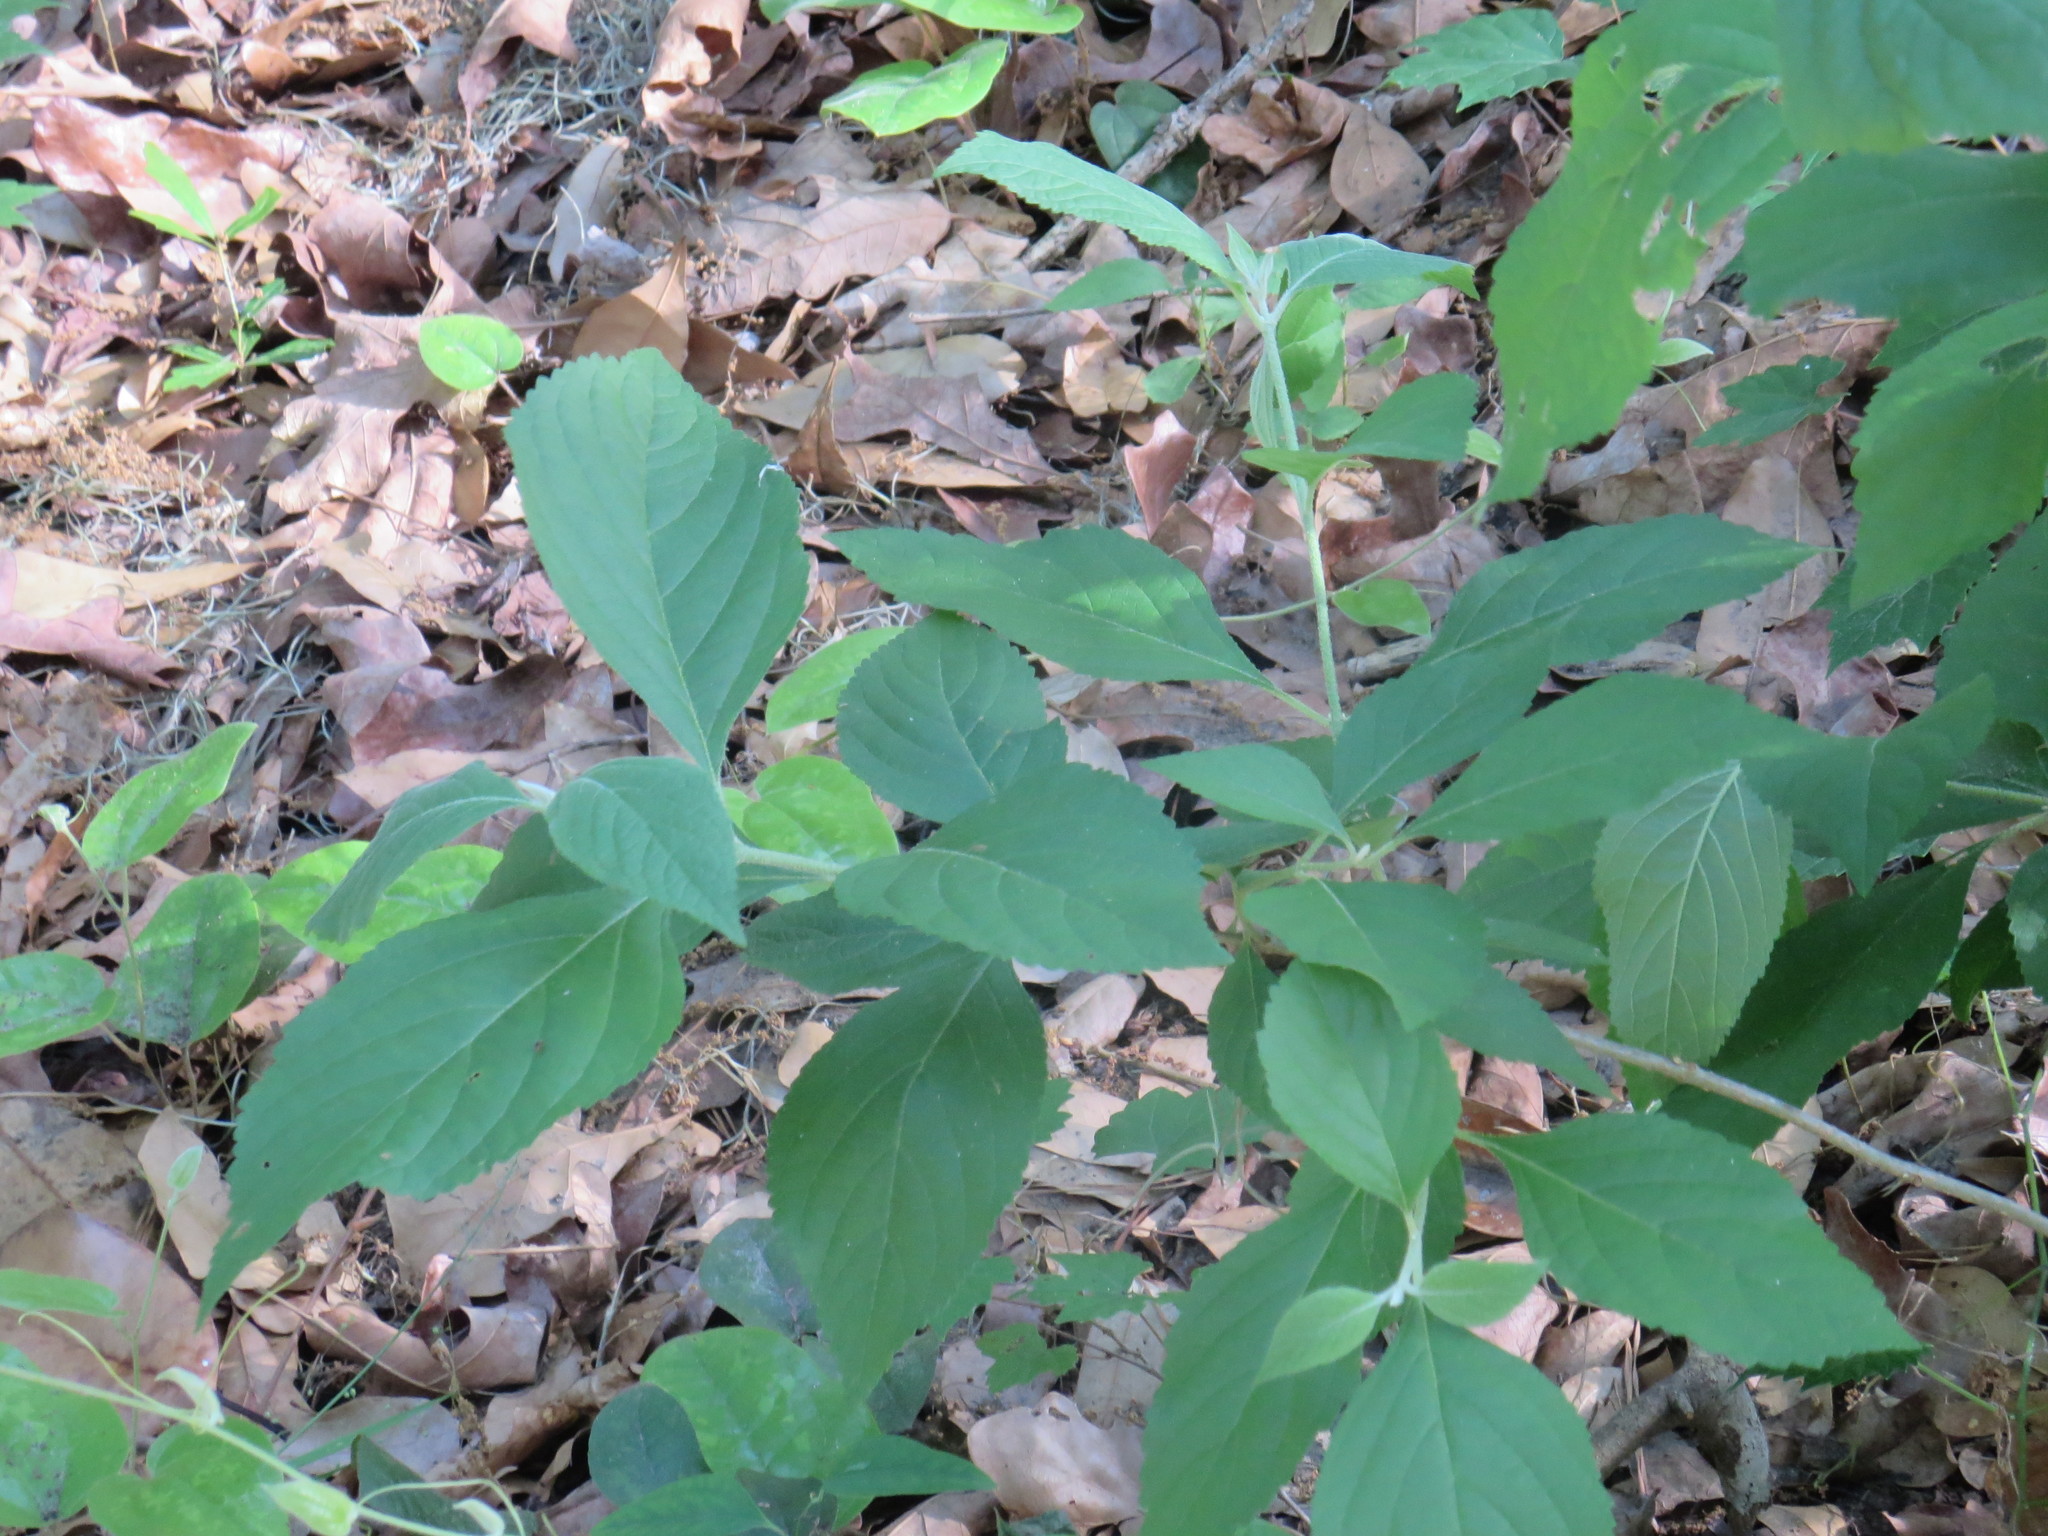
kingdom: Plantae
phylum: Tracheophyta
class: Magnoliopsida
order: Lamiales
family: Lamiaceae
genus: Callicarpa
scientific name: Callicarpa americana
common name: American beautyberry
